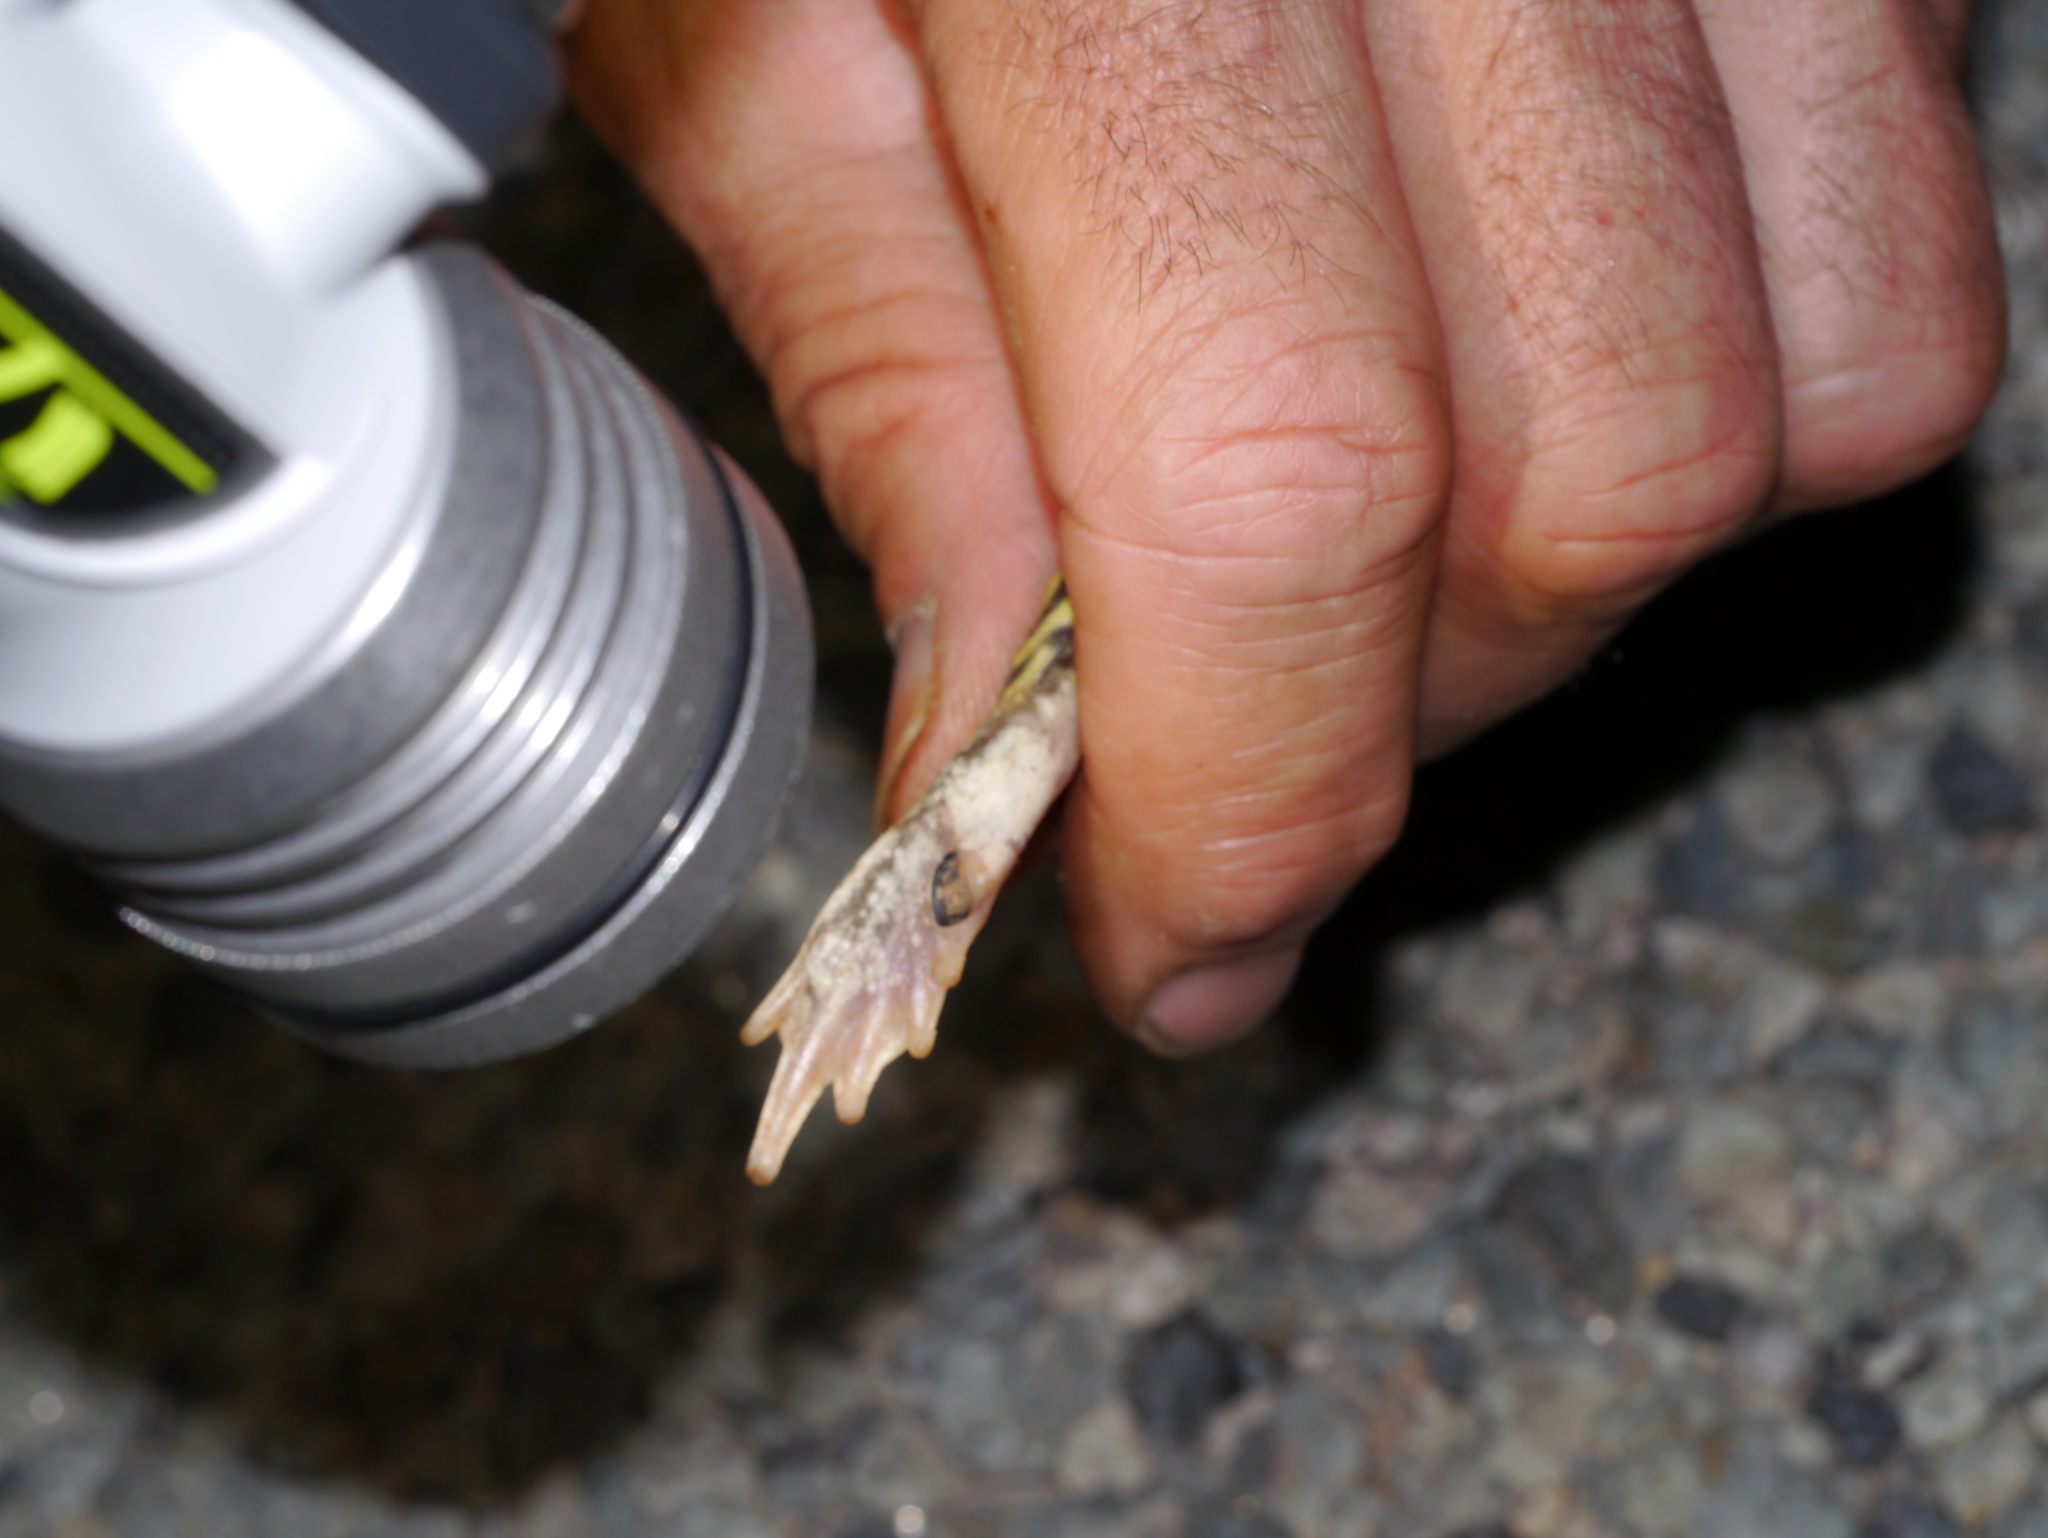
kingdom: Animalia
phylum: Chordata
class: Amphibia
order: Anura
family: Scaphiopodidae
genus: Scaphiopus
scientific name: Scaphiopus couchii
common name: Couch's spadefoot toad
